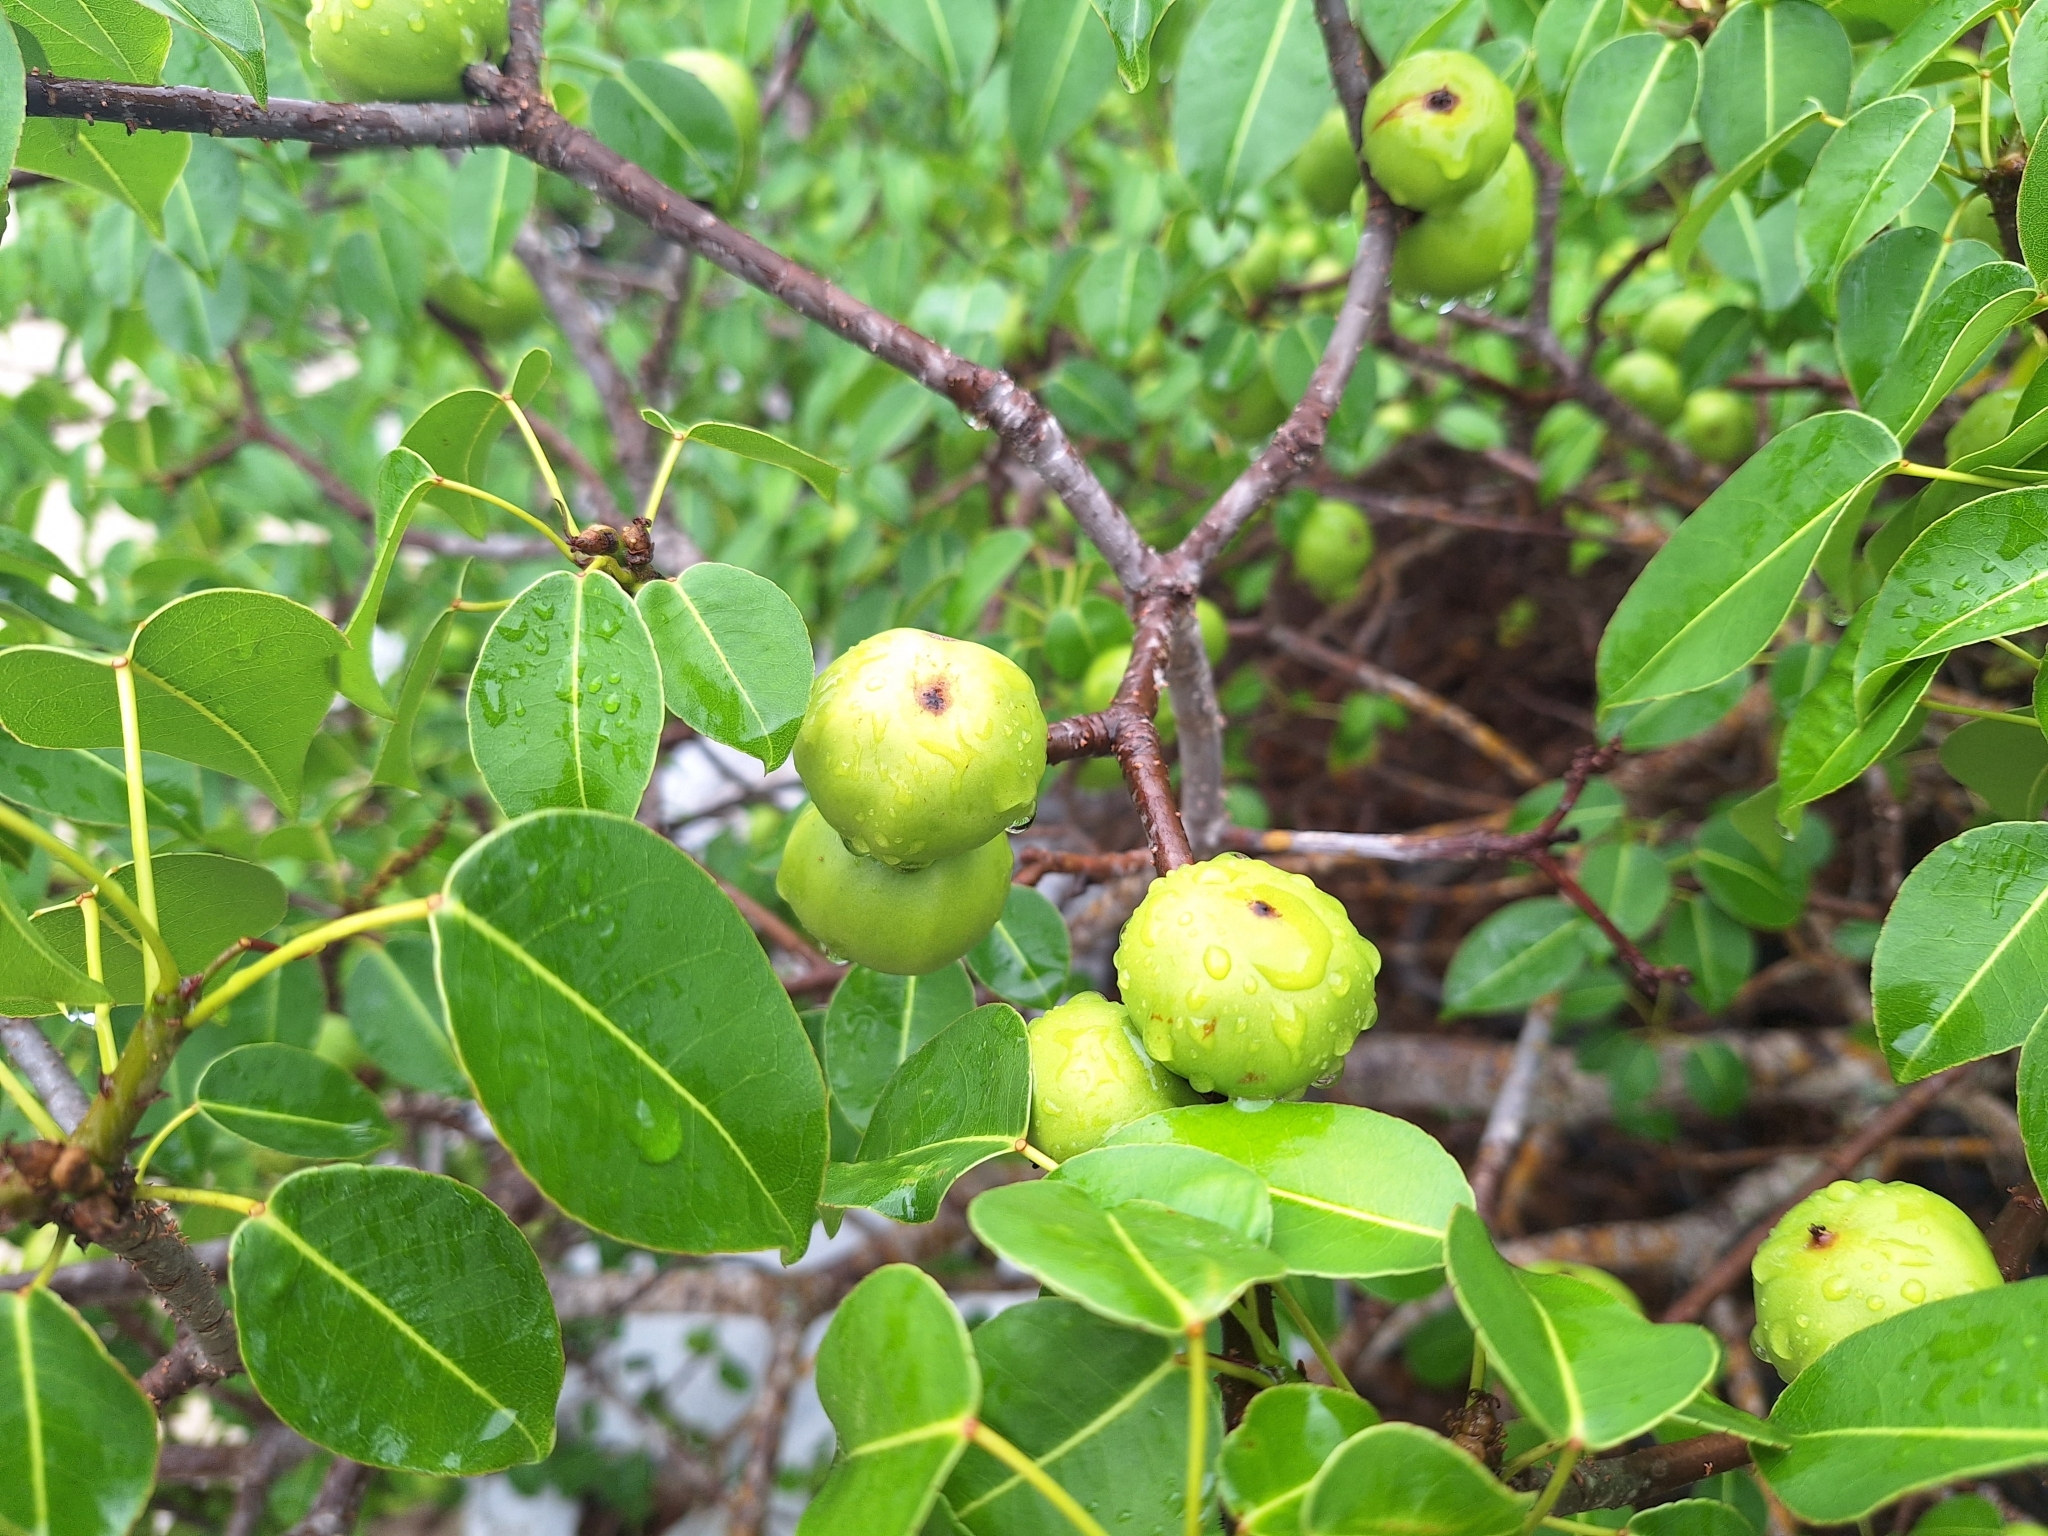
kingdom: Plantae
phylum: Tracheophyta
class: Magnoliopsida
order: Malpighiales
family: Euphorbiaceae
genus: Hippomane
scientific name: Hippomane mancinella
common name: Manchineel
